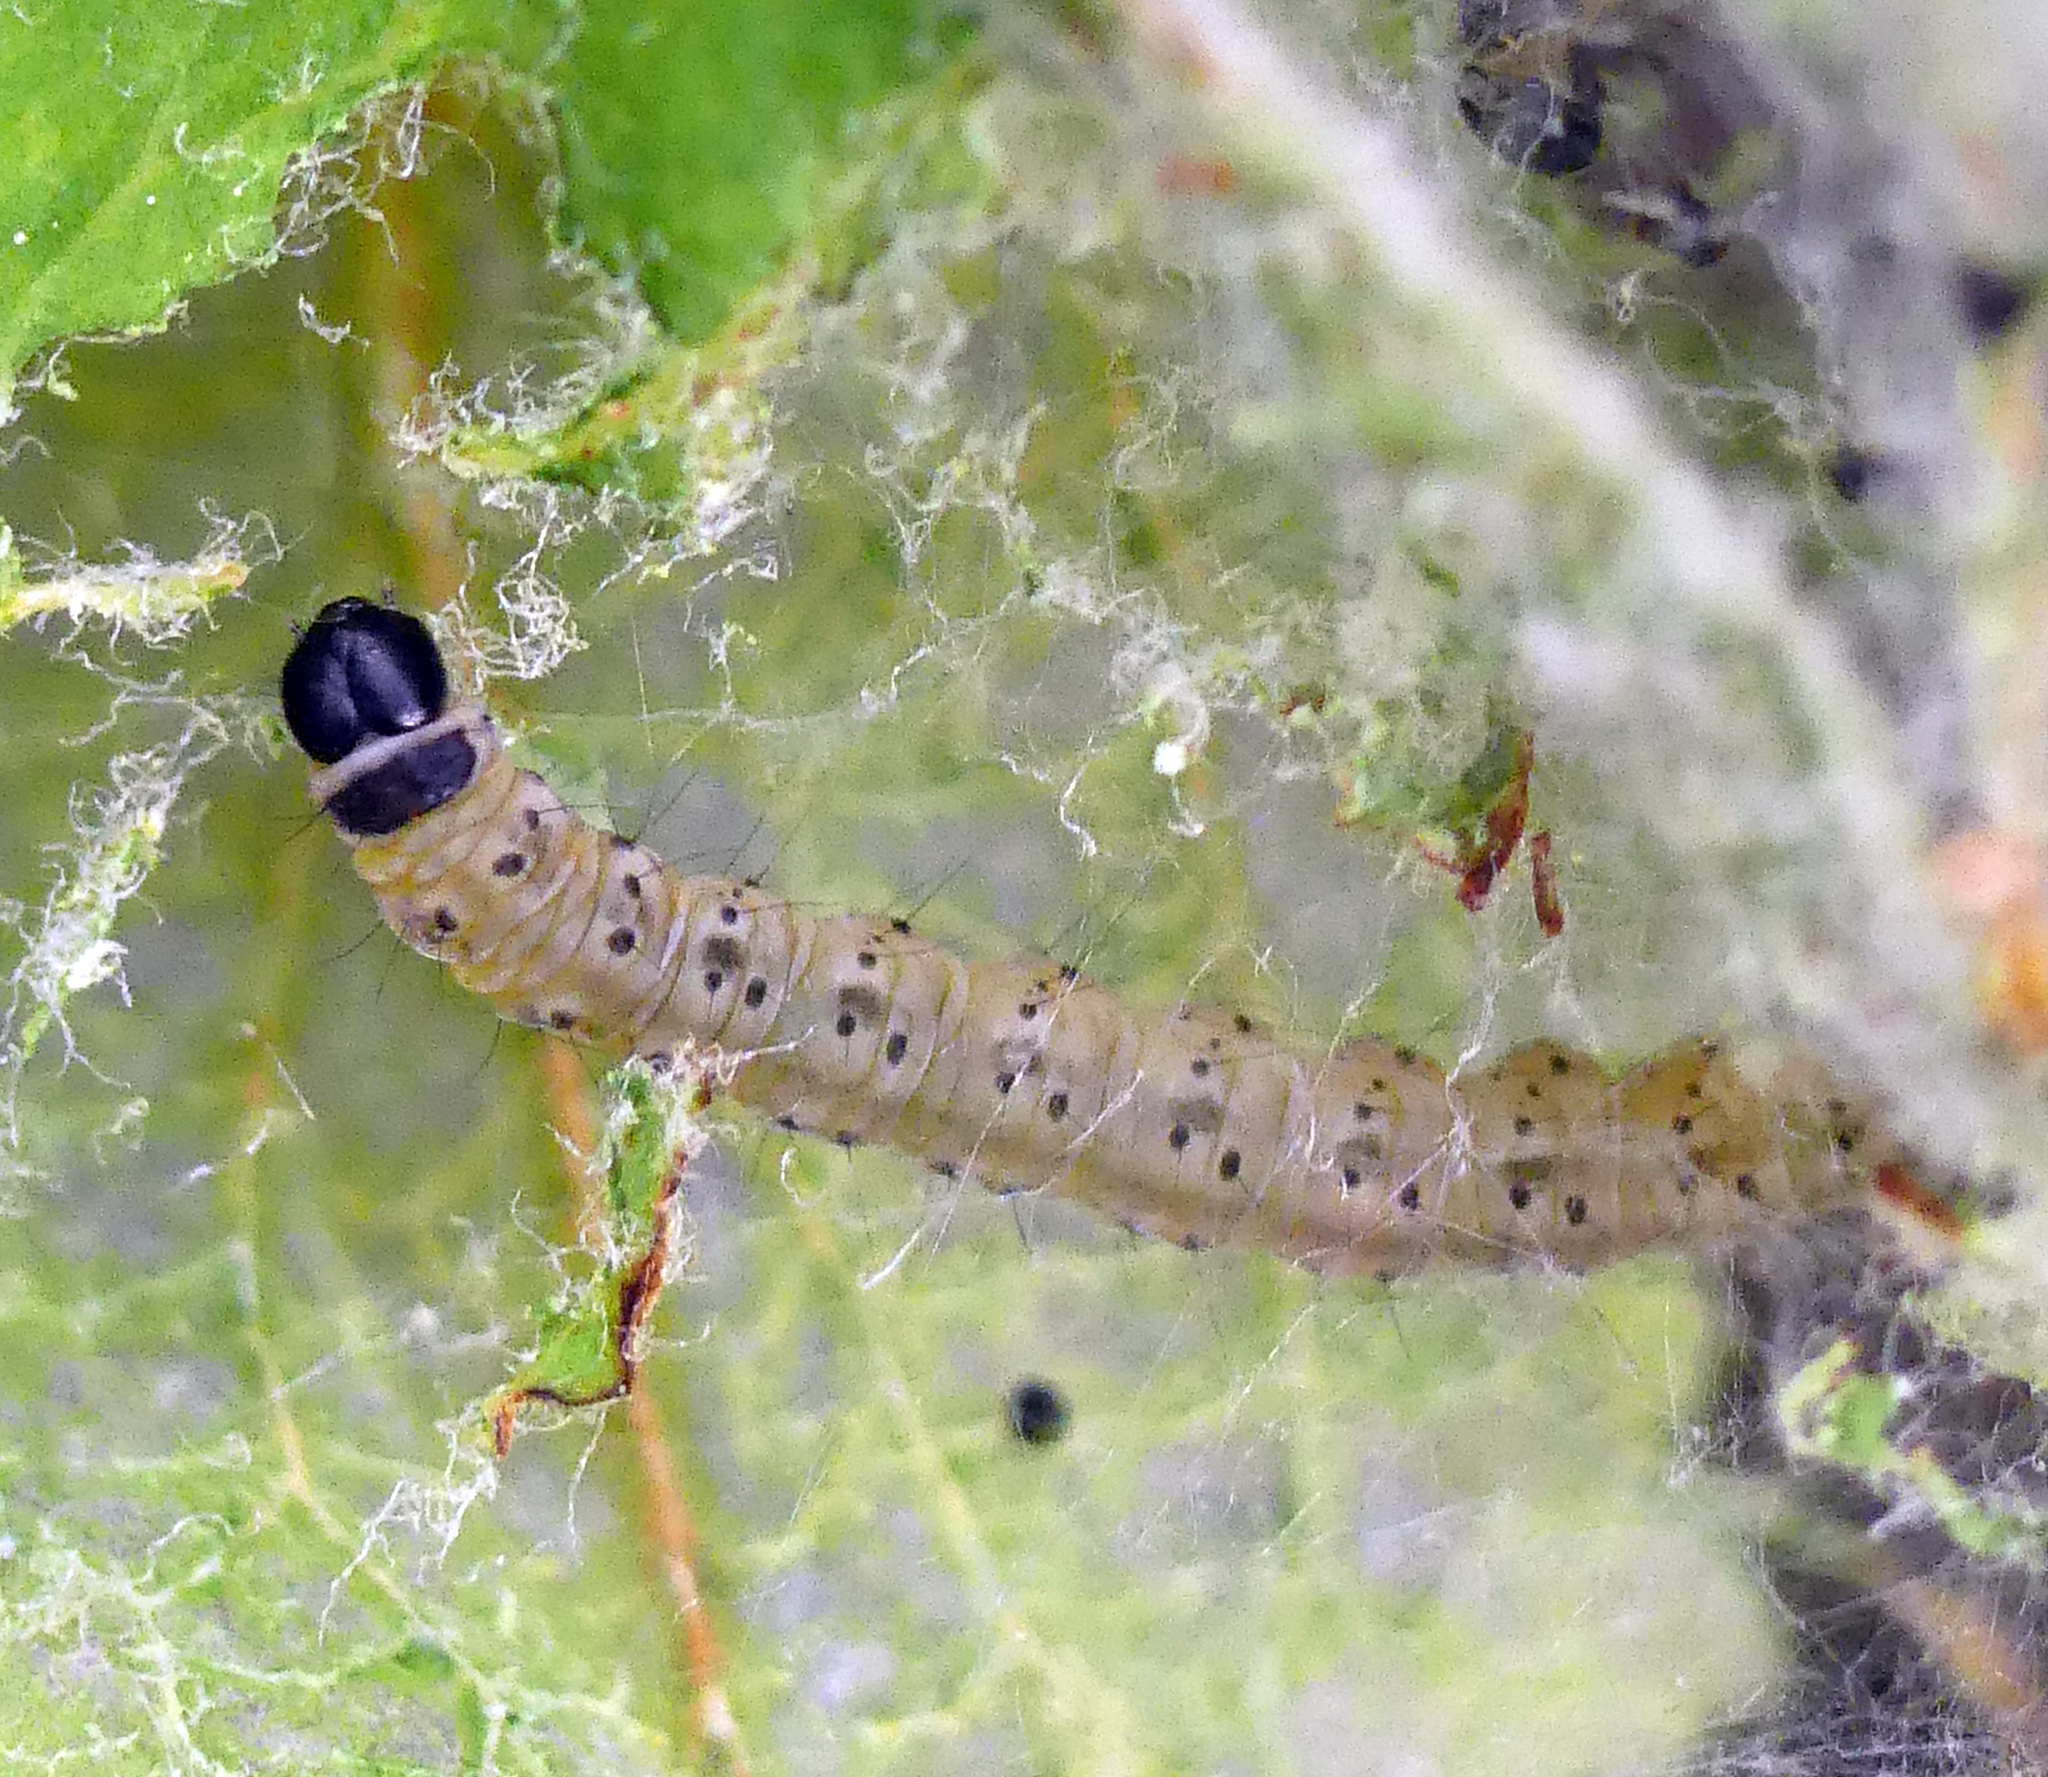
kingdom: Animalia
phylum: Arthropoda
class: Insecta
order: Lepidoptera
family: Yponomeutidae
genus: Yponomeuta
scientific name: Yponomeuta padella
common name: Orchard ermine
